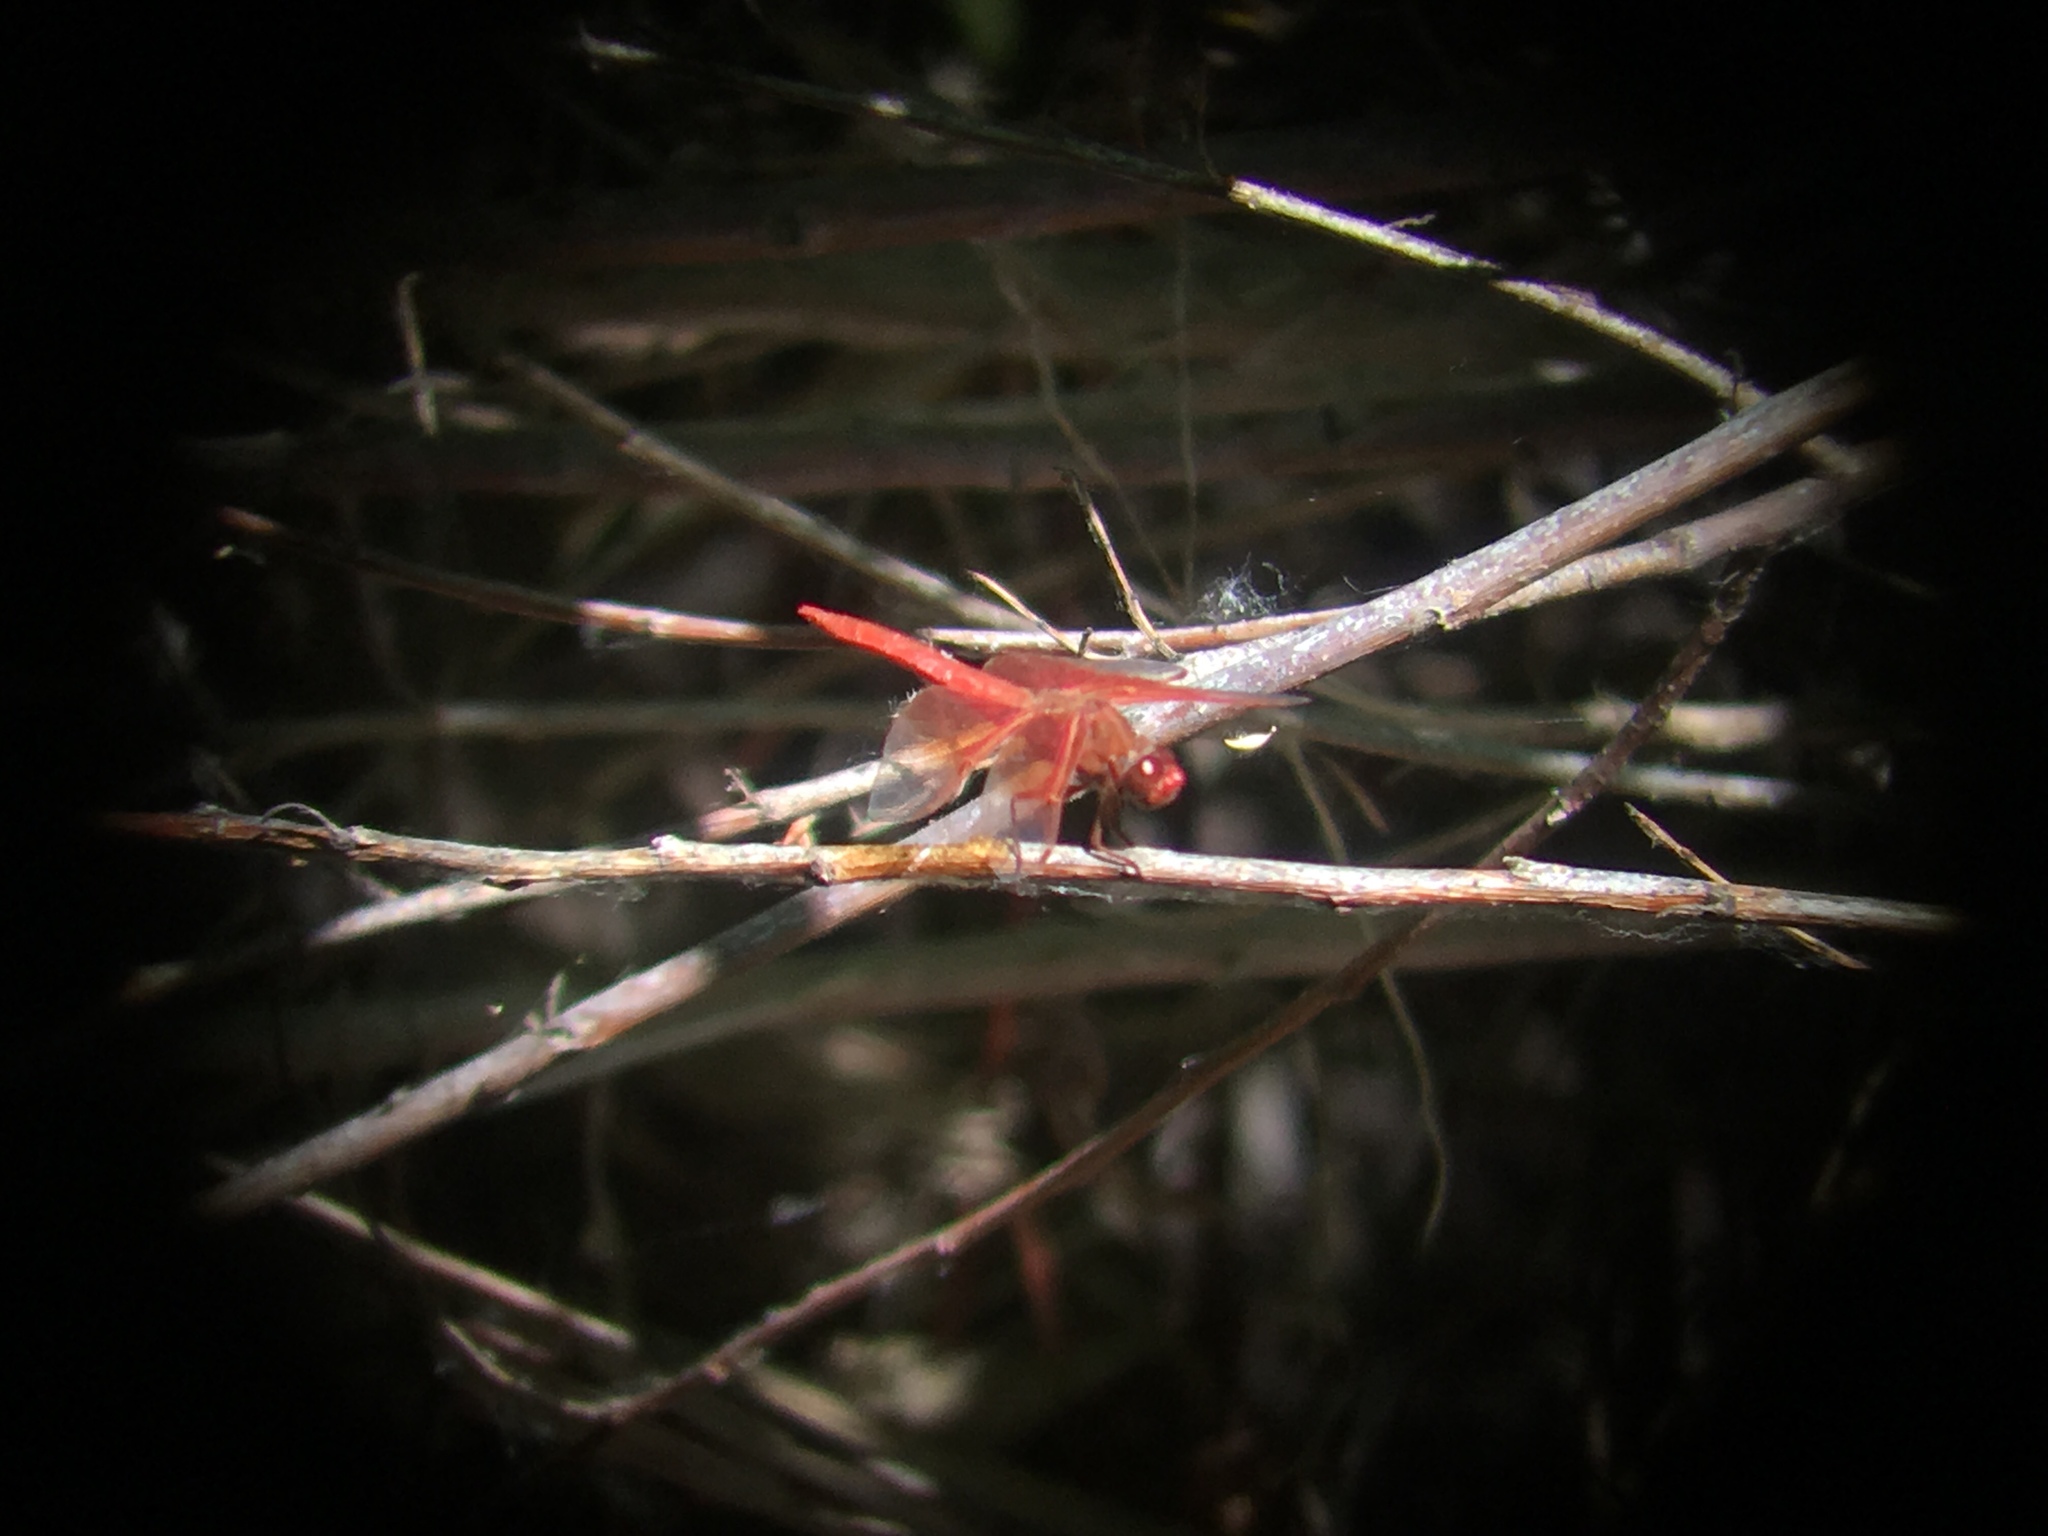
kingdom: Animalia
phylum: Arthropoda
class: Insecta
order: Odonata
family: Libellulidae
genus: Libellula
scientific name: Libellula saturata
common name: Flame skimmer
